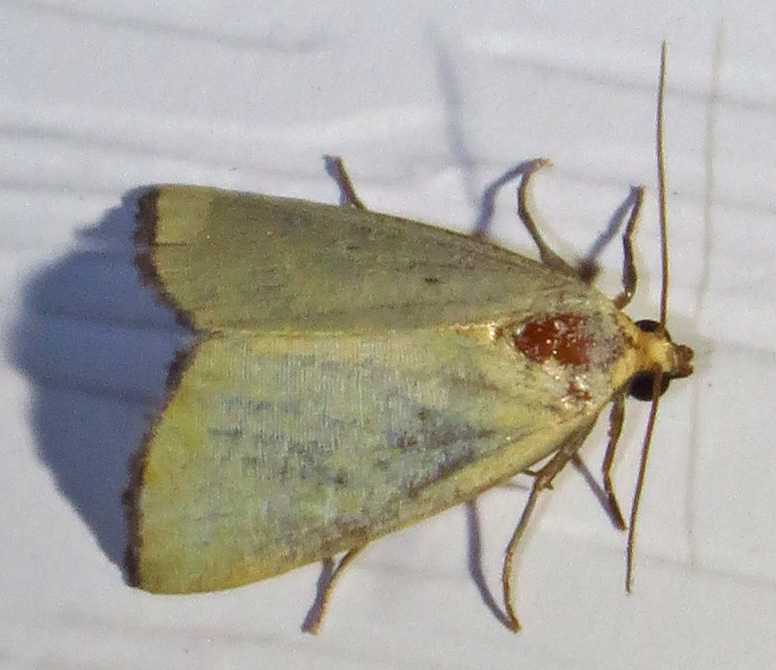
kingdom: Animalia
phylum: Arthropoda
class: Insecta
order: Lepidoptera
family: Noctuidae
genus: Marimatha
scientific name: Marimatha nigrofimbria
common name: Black-bordered lemon moth
